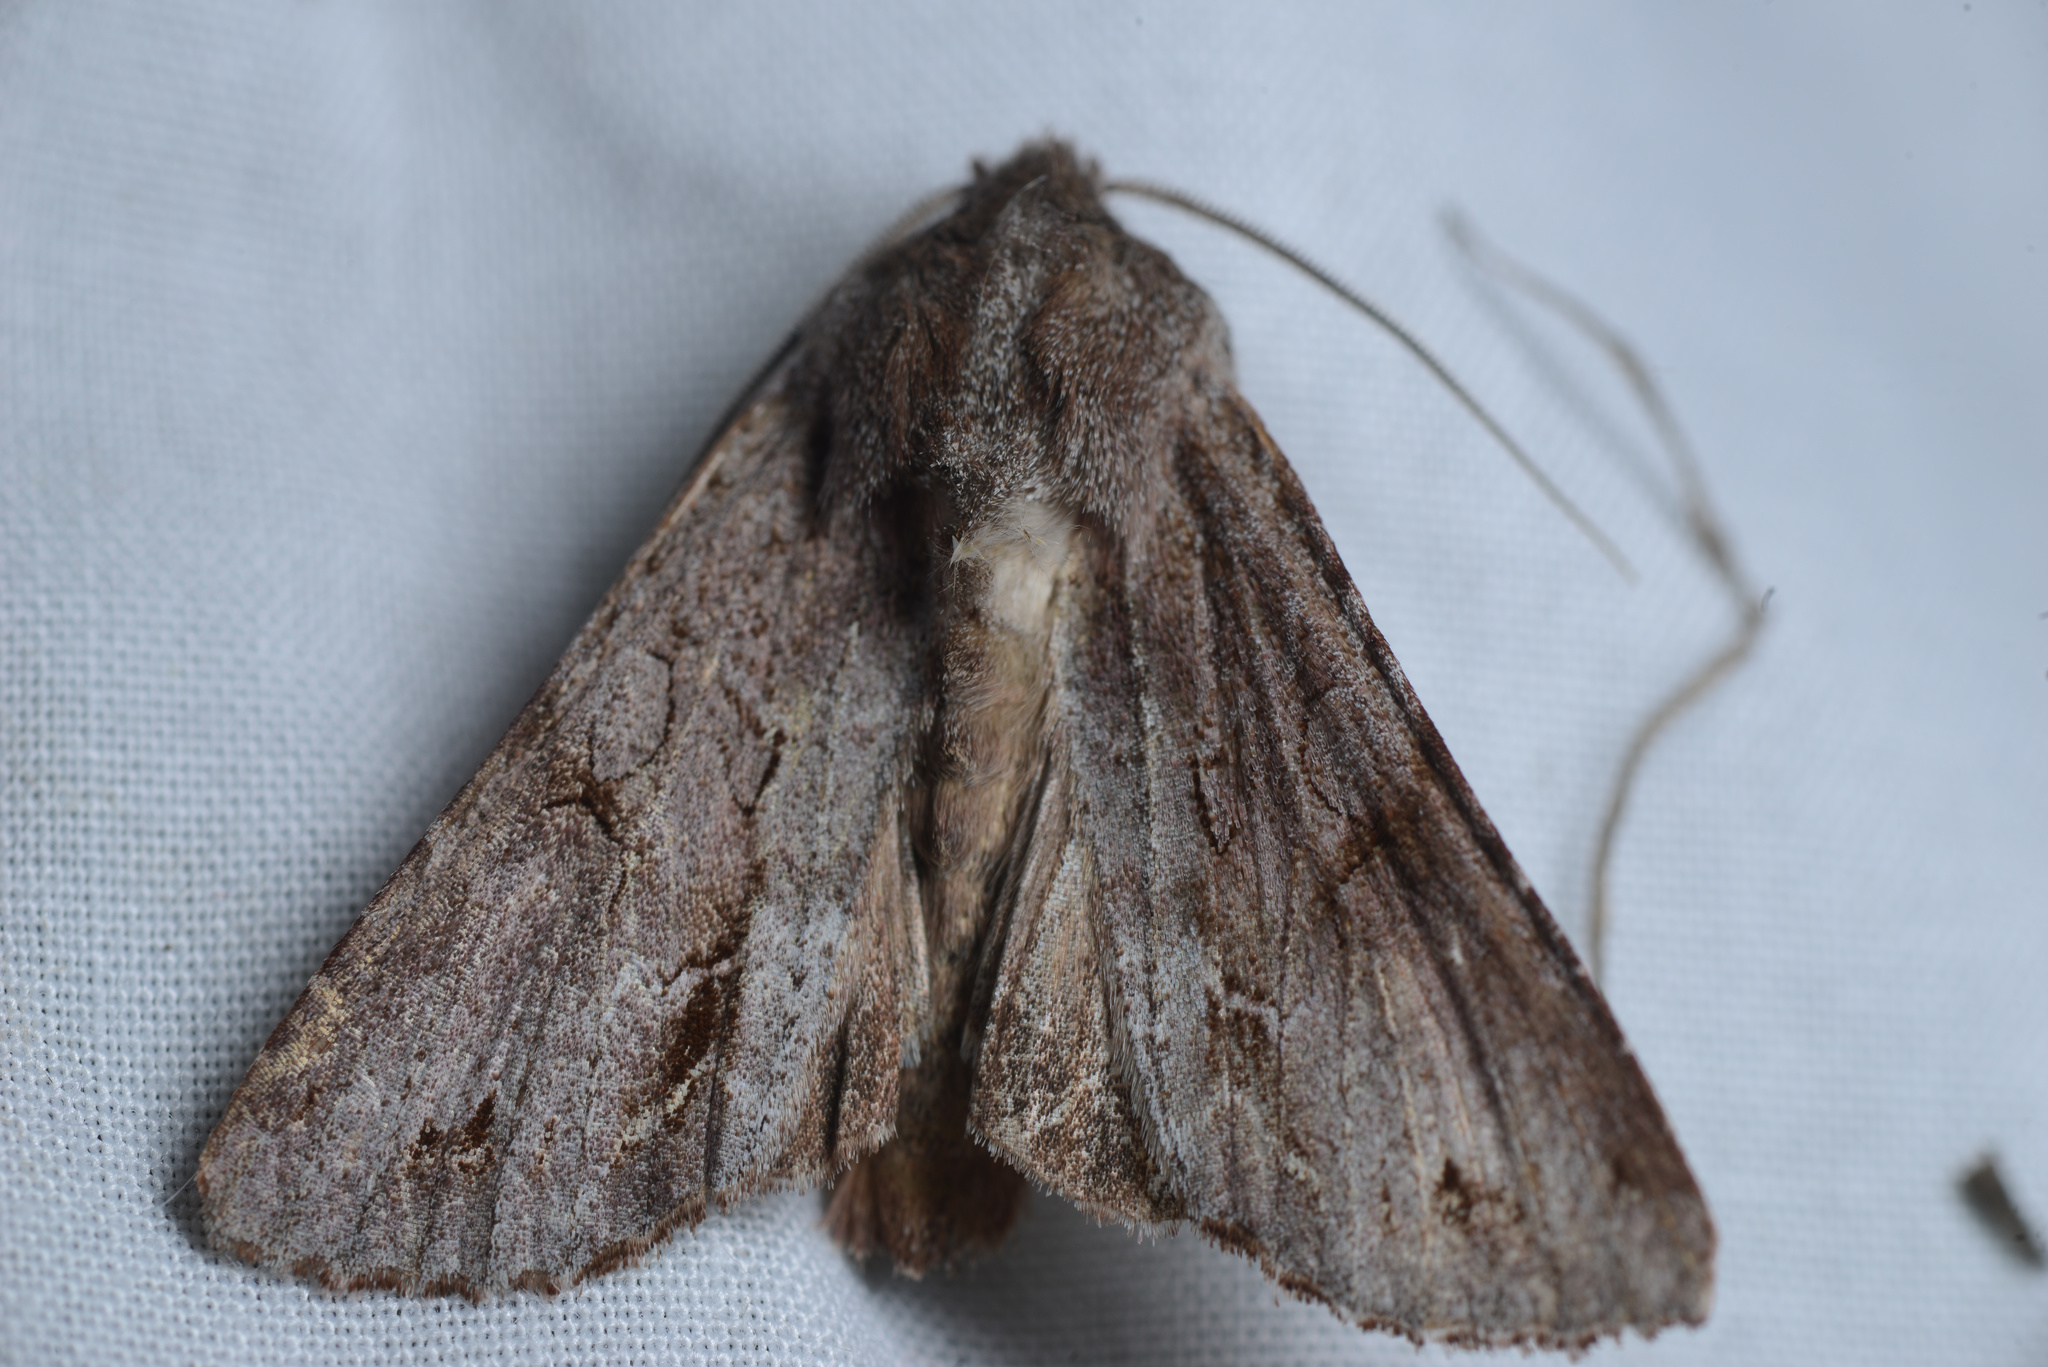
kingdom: Animalia
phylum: Arthropoda
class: Insecta
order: Lepidoptera
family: Noctuidae
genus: Ichneutica
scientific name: Ichneutica
